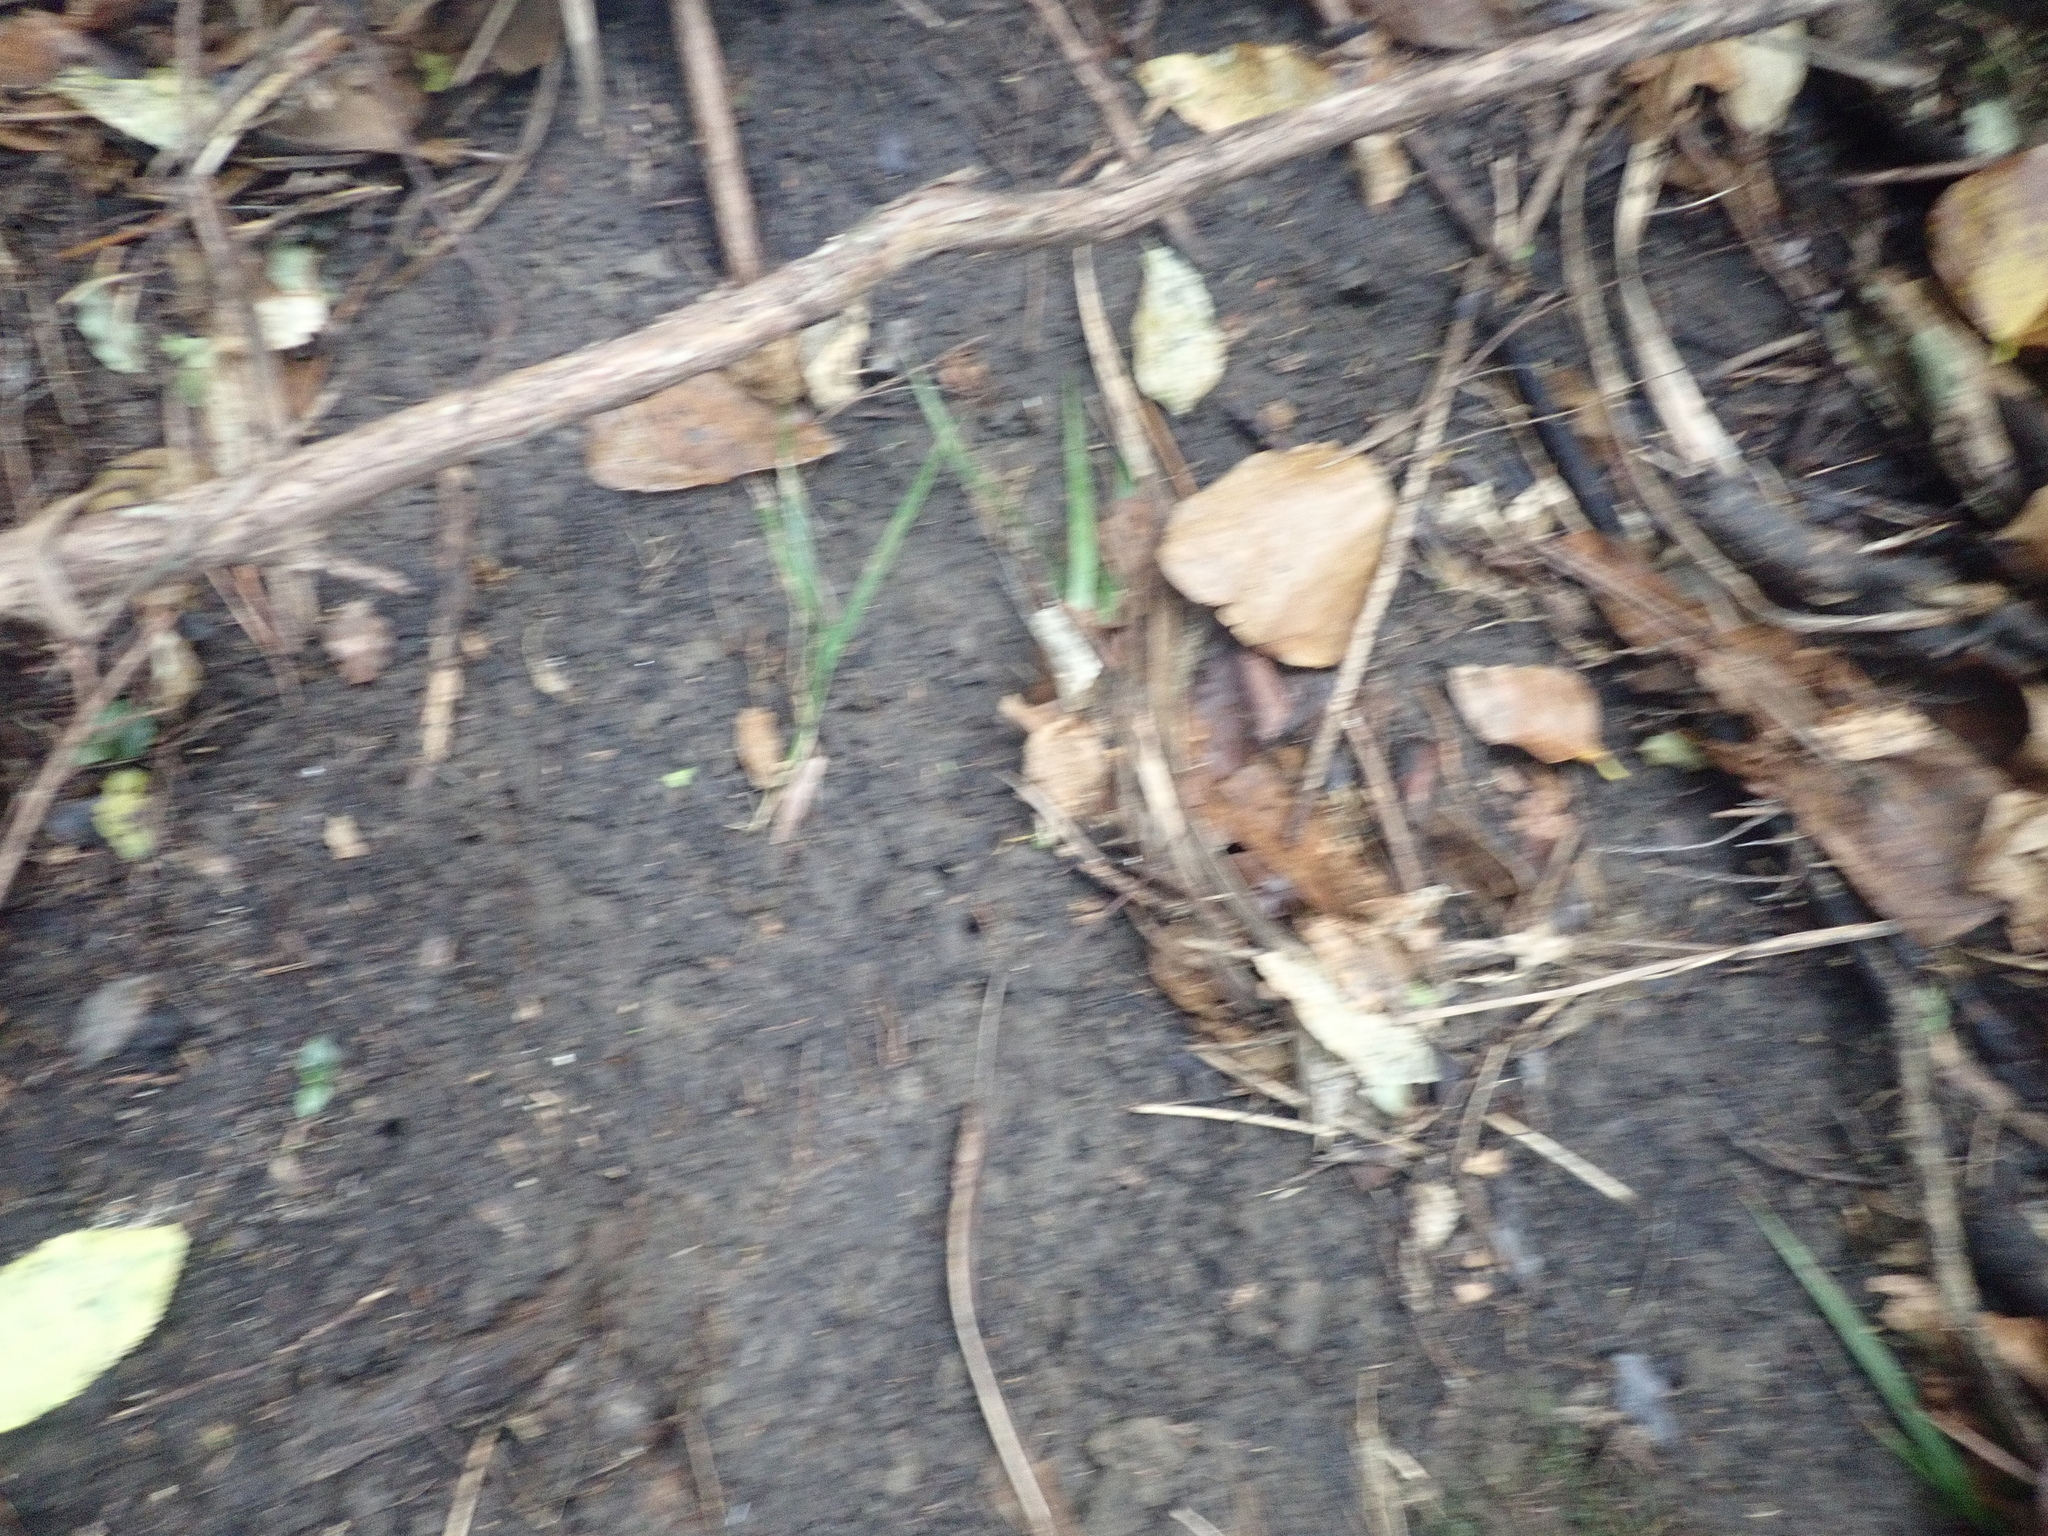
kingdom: Plantae
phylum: Tracheophyta
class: Liliopsida
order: Arecales
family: Arecaceae
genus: Rhopalostylis
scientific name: Rhopalostylis sapida
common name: Feather-duster palm
